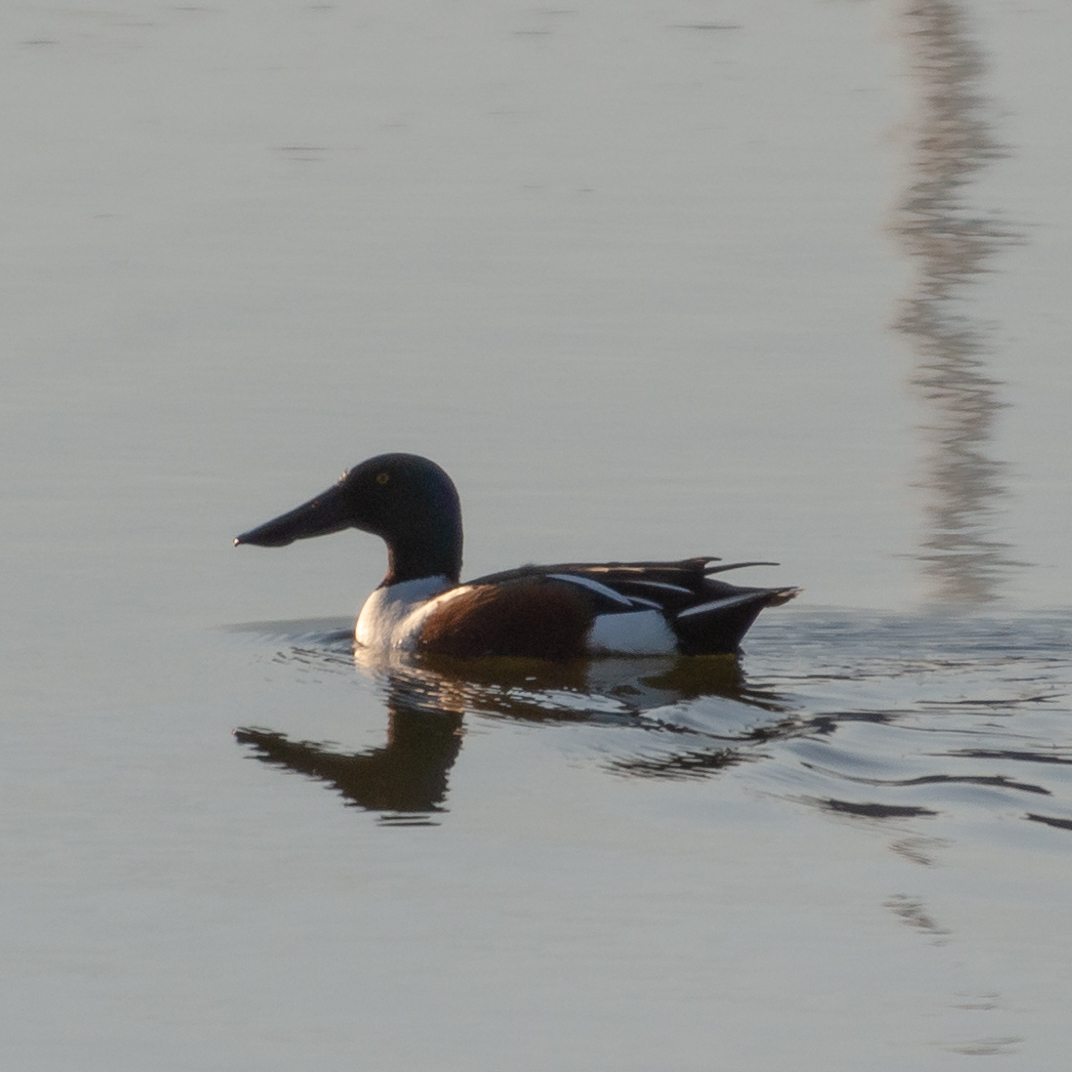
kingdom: Animalia
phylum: Chordata
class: Aves
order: Anseriformes
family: Anatidae
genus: Spatula
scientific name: Spatula clypeata
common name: Northern shoveler
